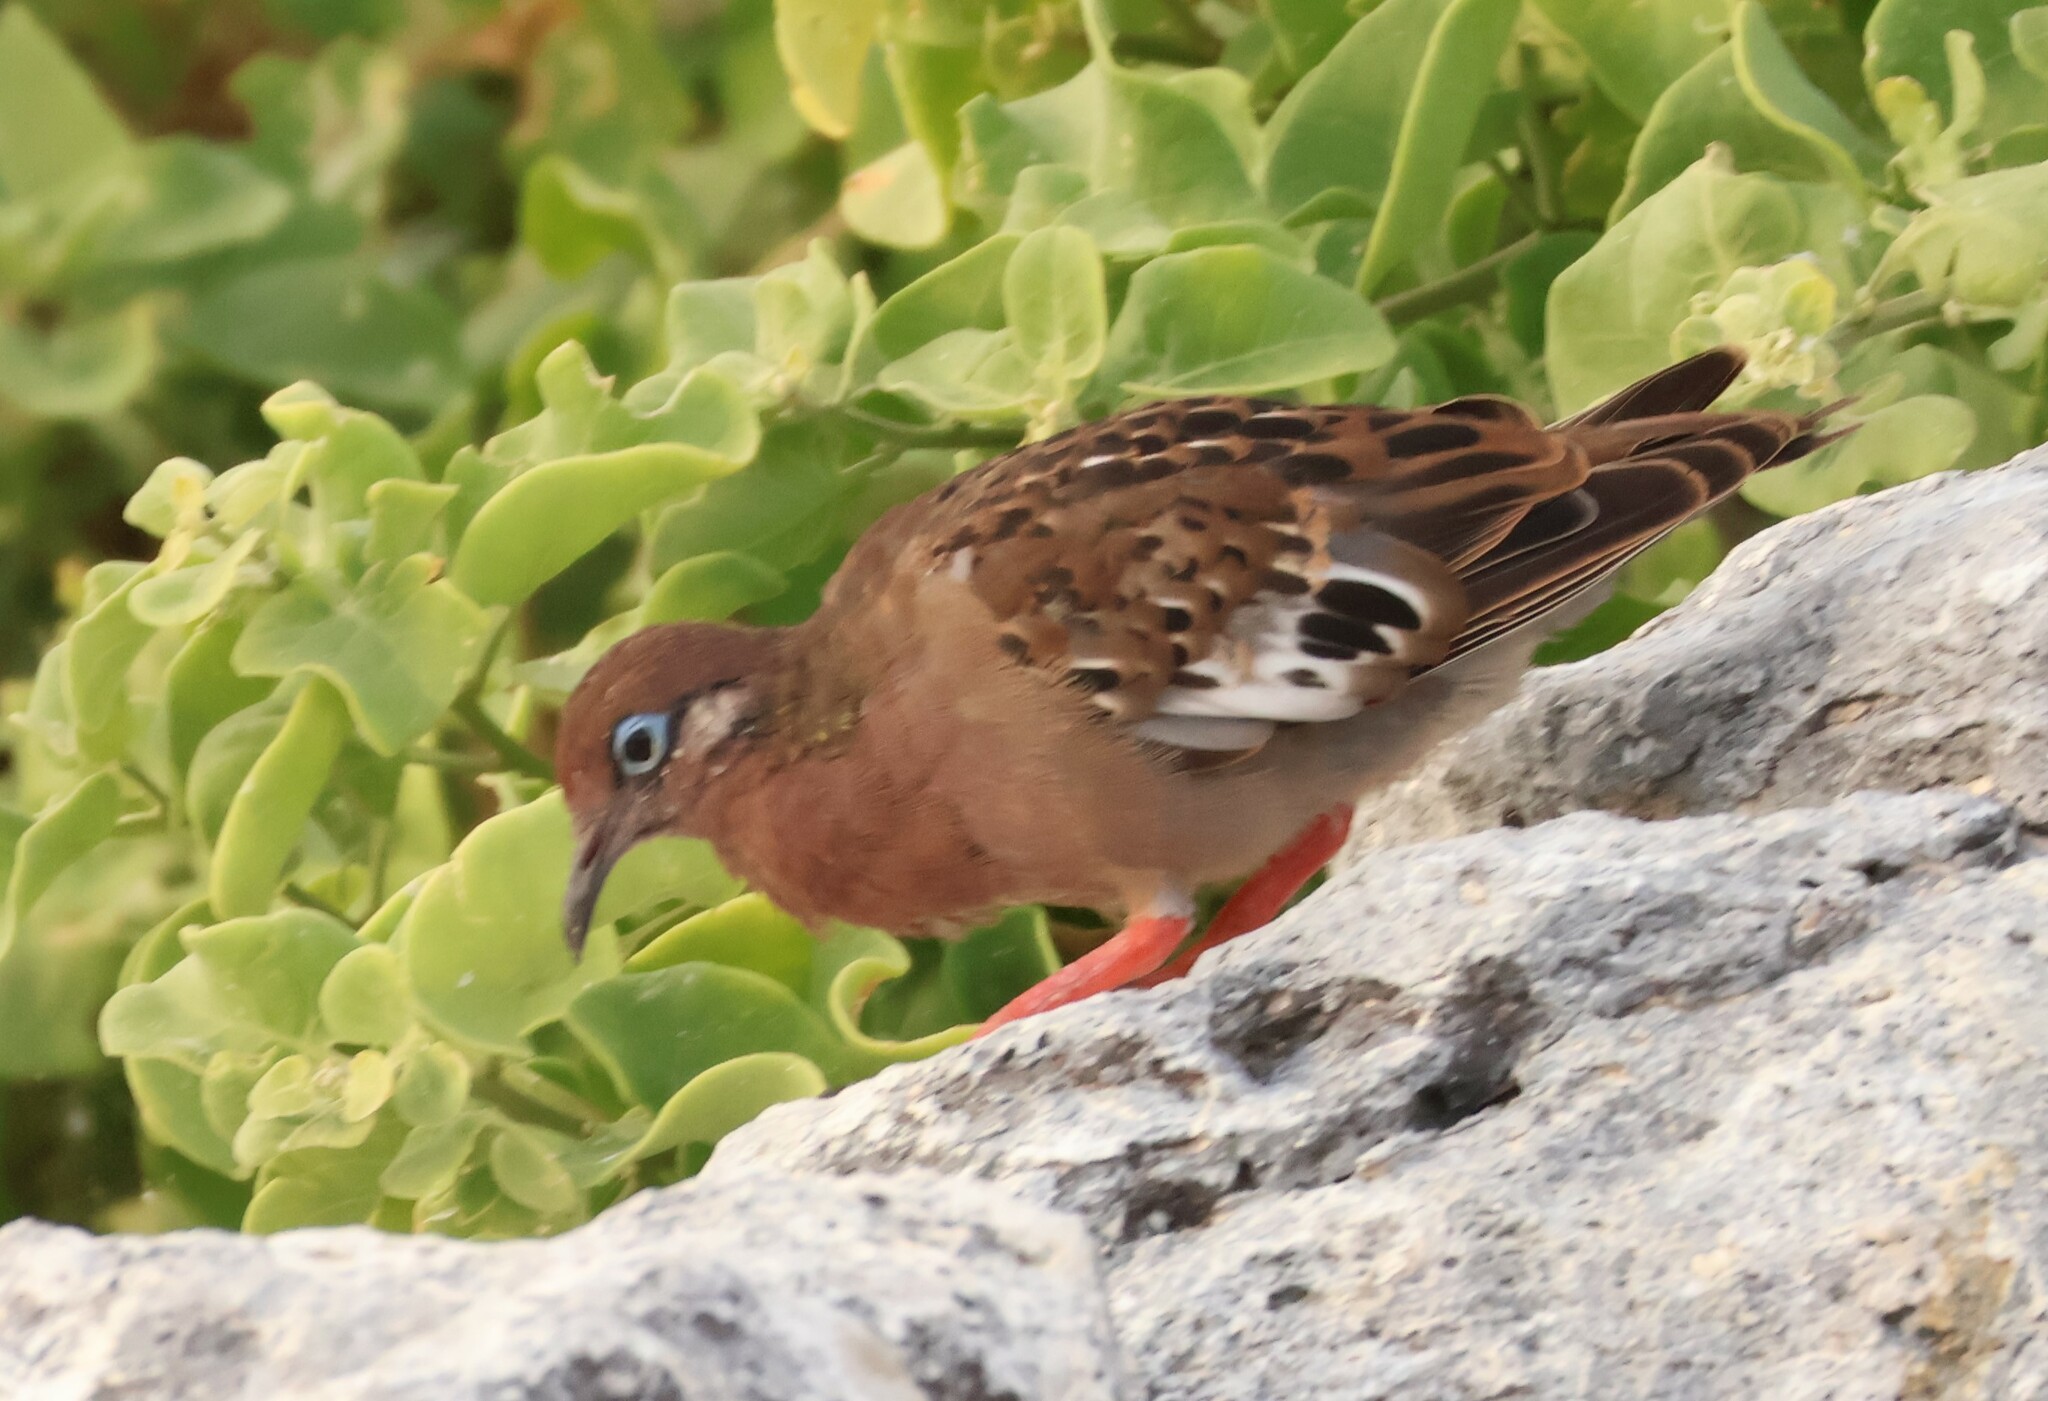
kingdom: Animalia
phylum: Chordata
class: Aves
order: Columbiformes
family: Columbidae
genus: Zenaida
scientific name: Zenaida galapagoensis
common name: Galapagos dove
